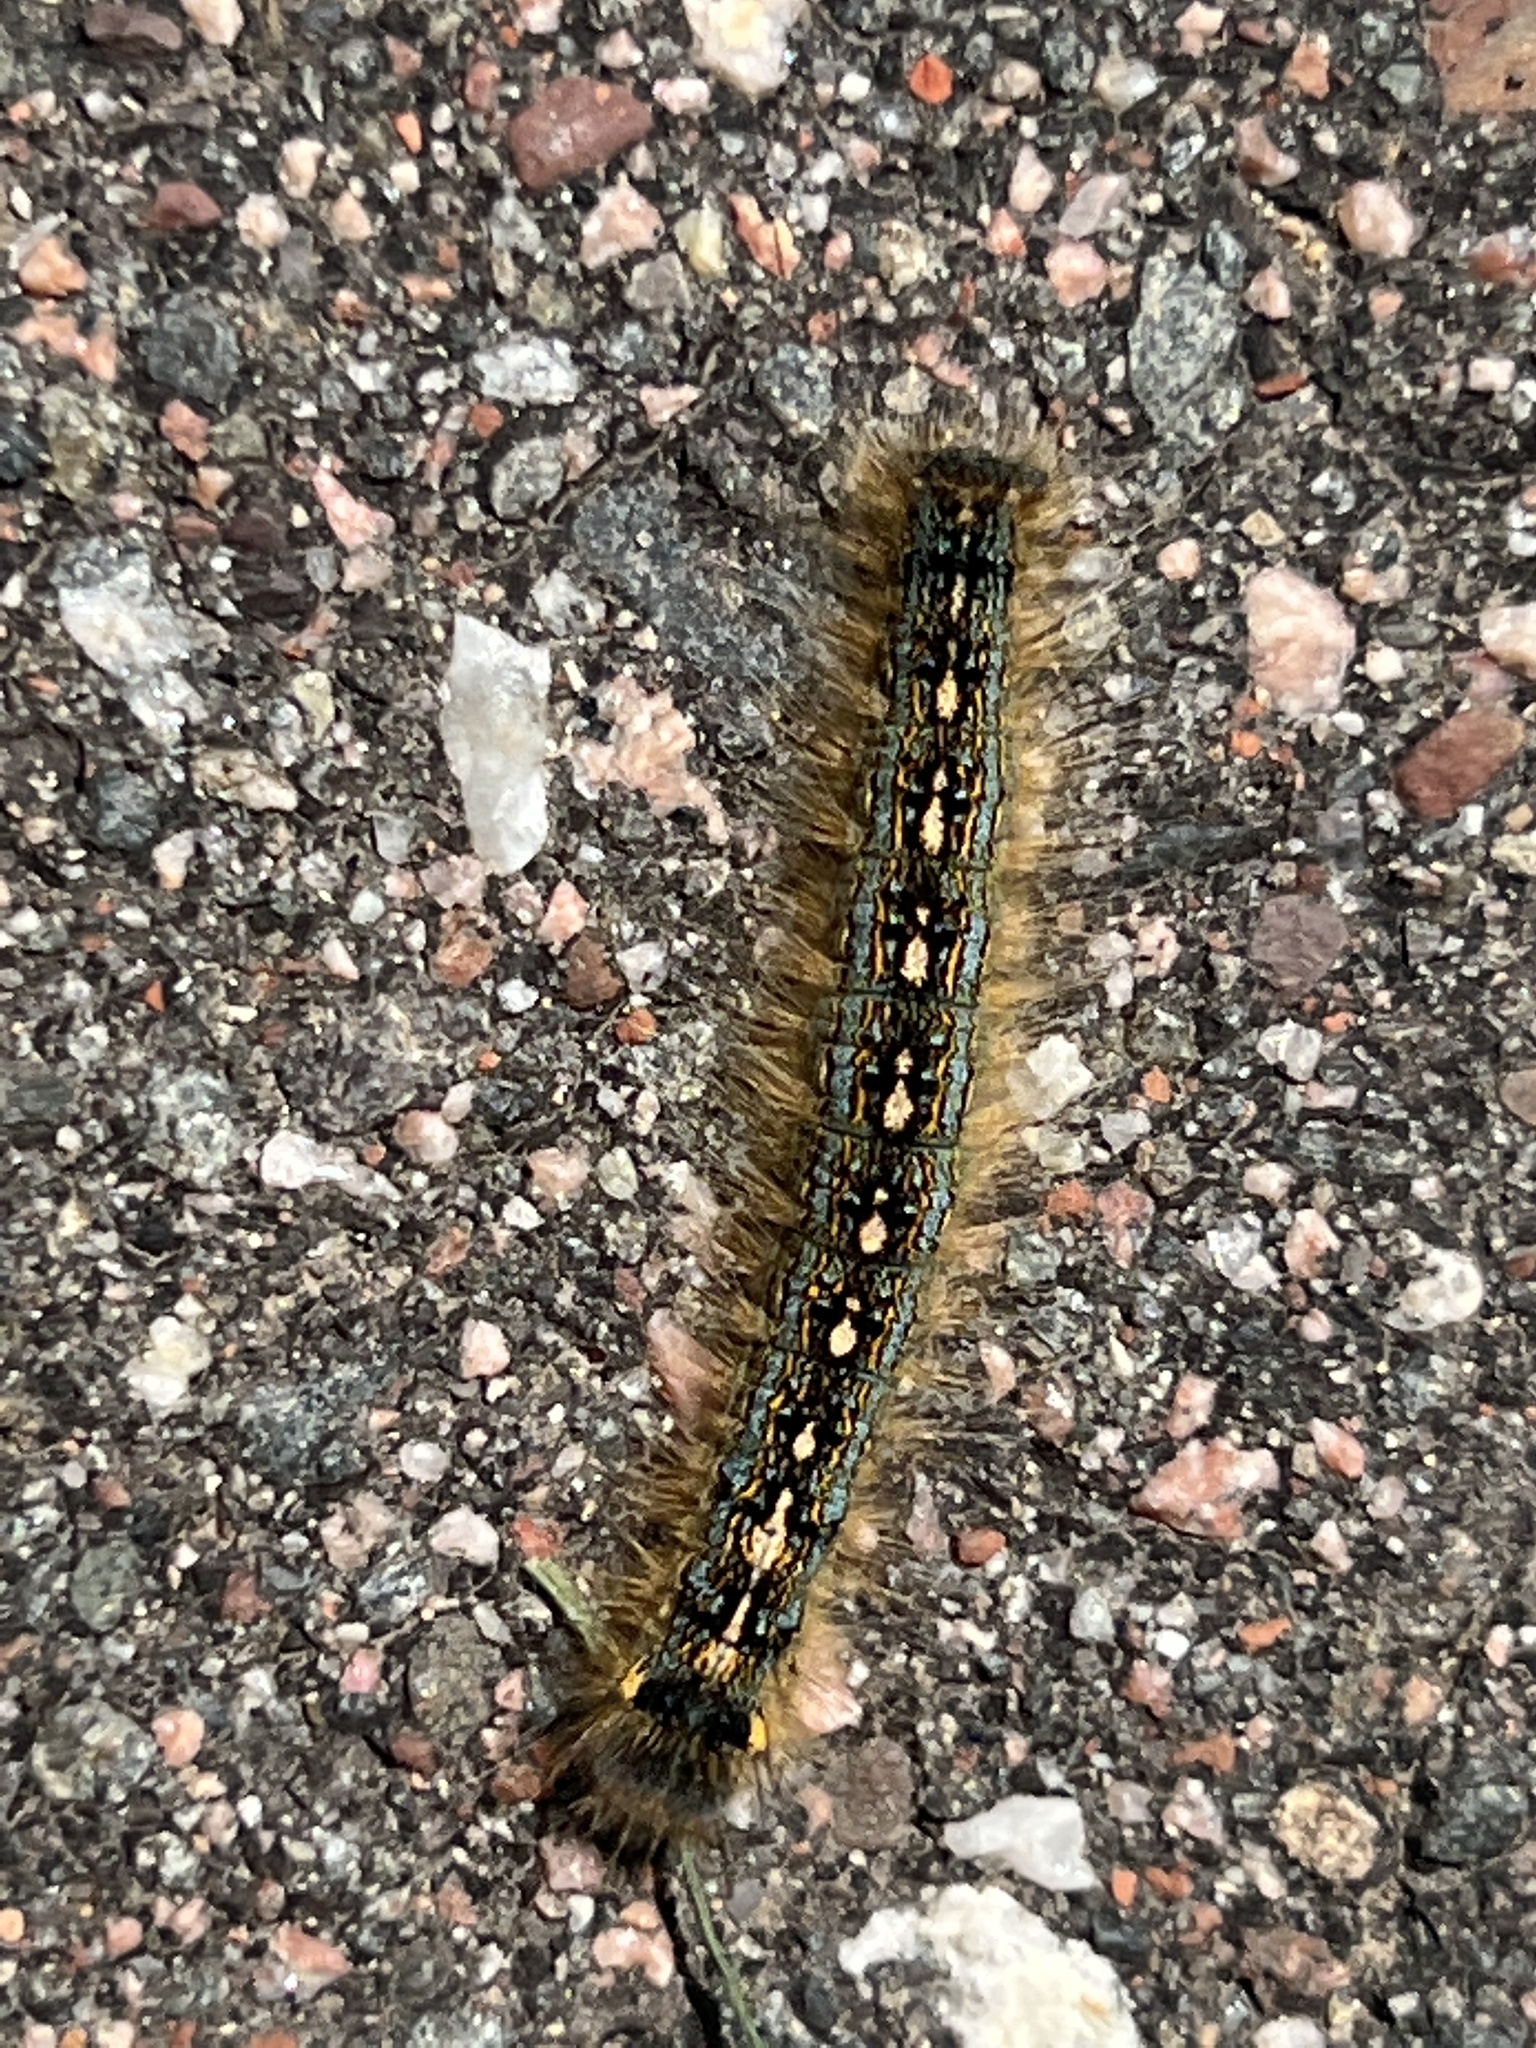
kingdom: Animalia
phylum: Arthropoda
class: Insecta
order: Lepidoptera
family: Lasiocampidae
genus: Malacosoma
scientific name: Malacosoma disstria
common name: Forest tent caterpillar
